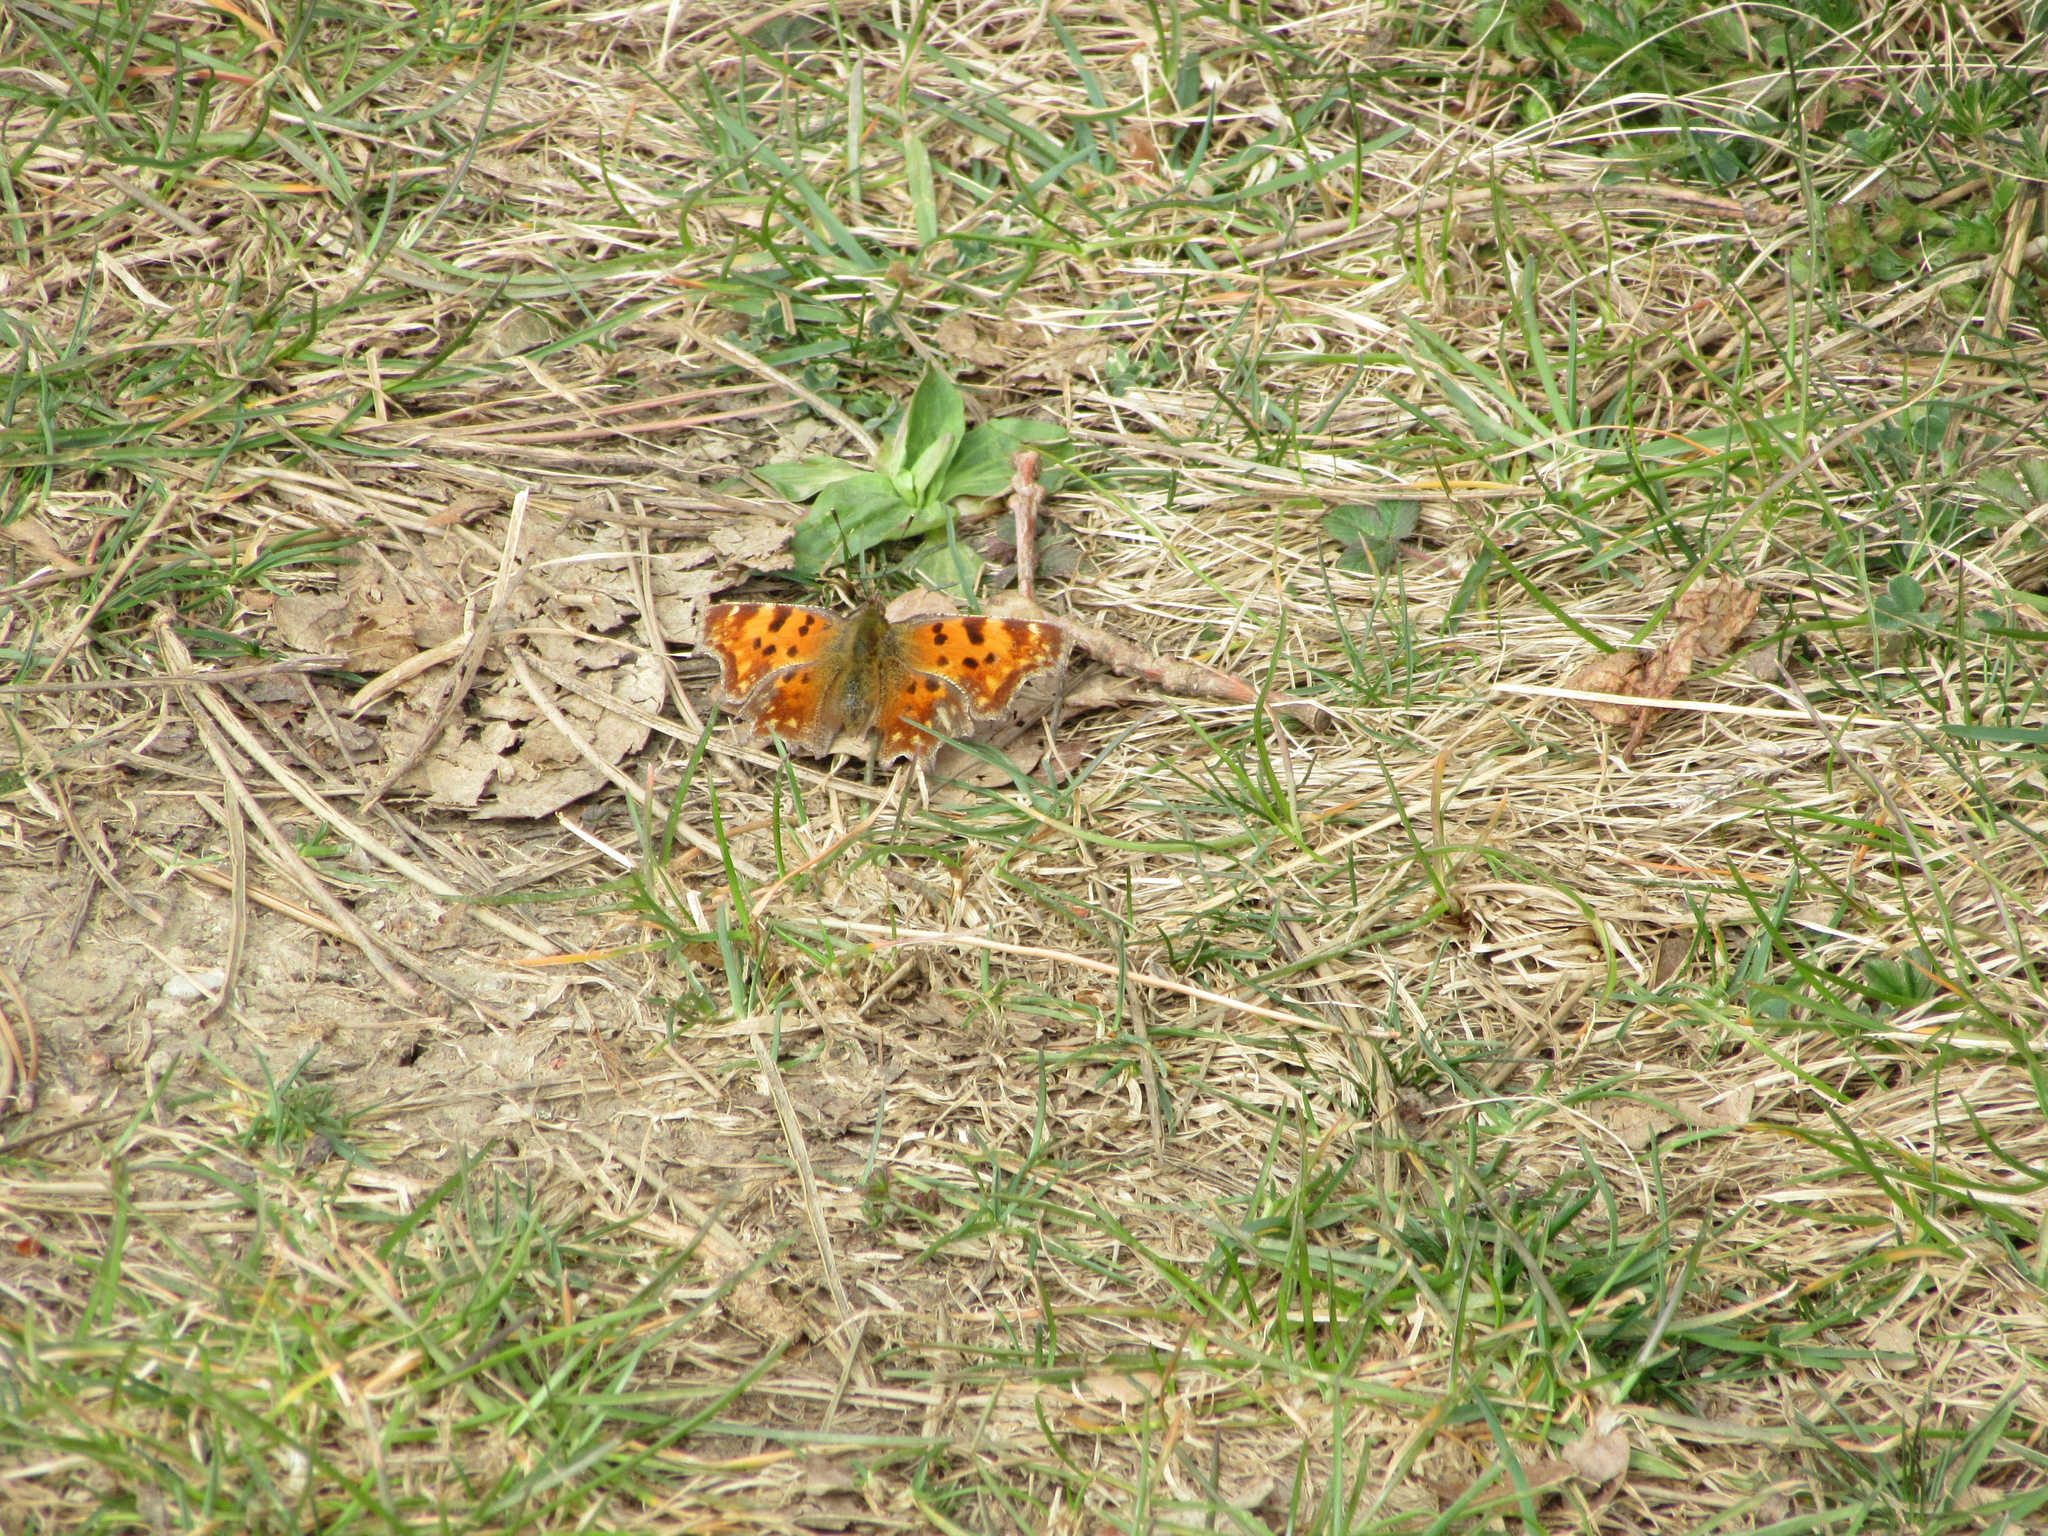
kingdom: Animalia
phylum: Arthropoda
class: Insecta
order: Lepidoptera
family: Nymphalidae
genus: Polygonia
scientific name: Polygonia c-album
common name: Comma
